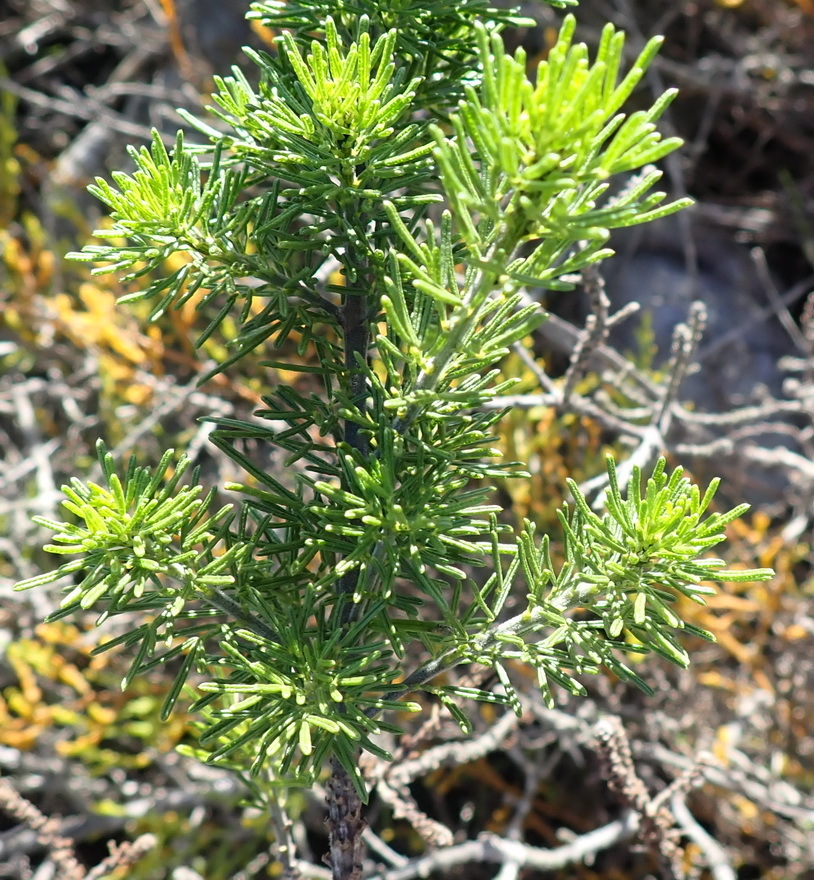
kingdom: Plantae
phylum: Tracheophyta
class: Magnoliopsida
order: Fabales
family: Fabaceae
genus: Psoralea
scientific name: Psoralea vanberkelae
